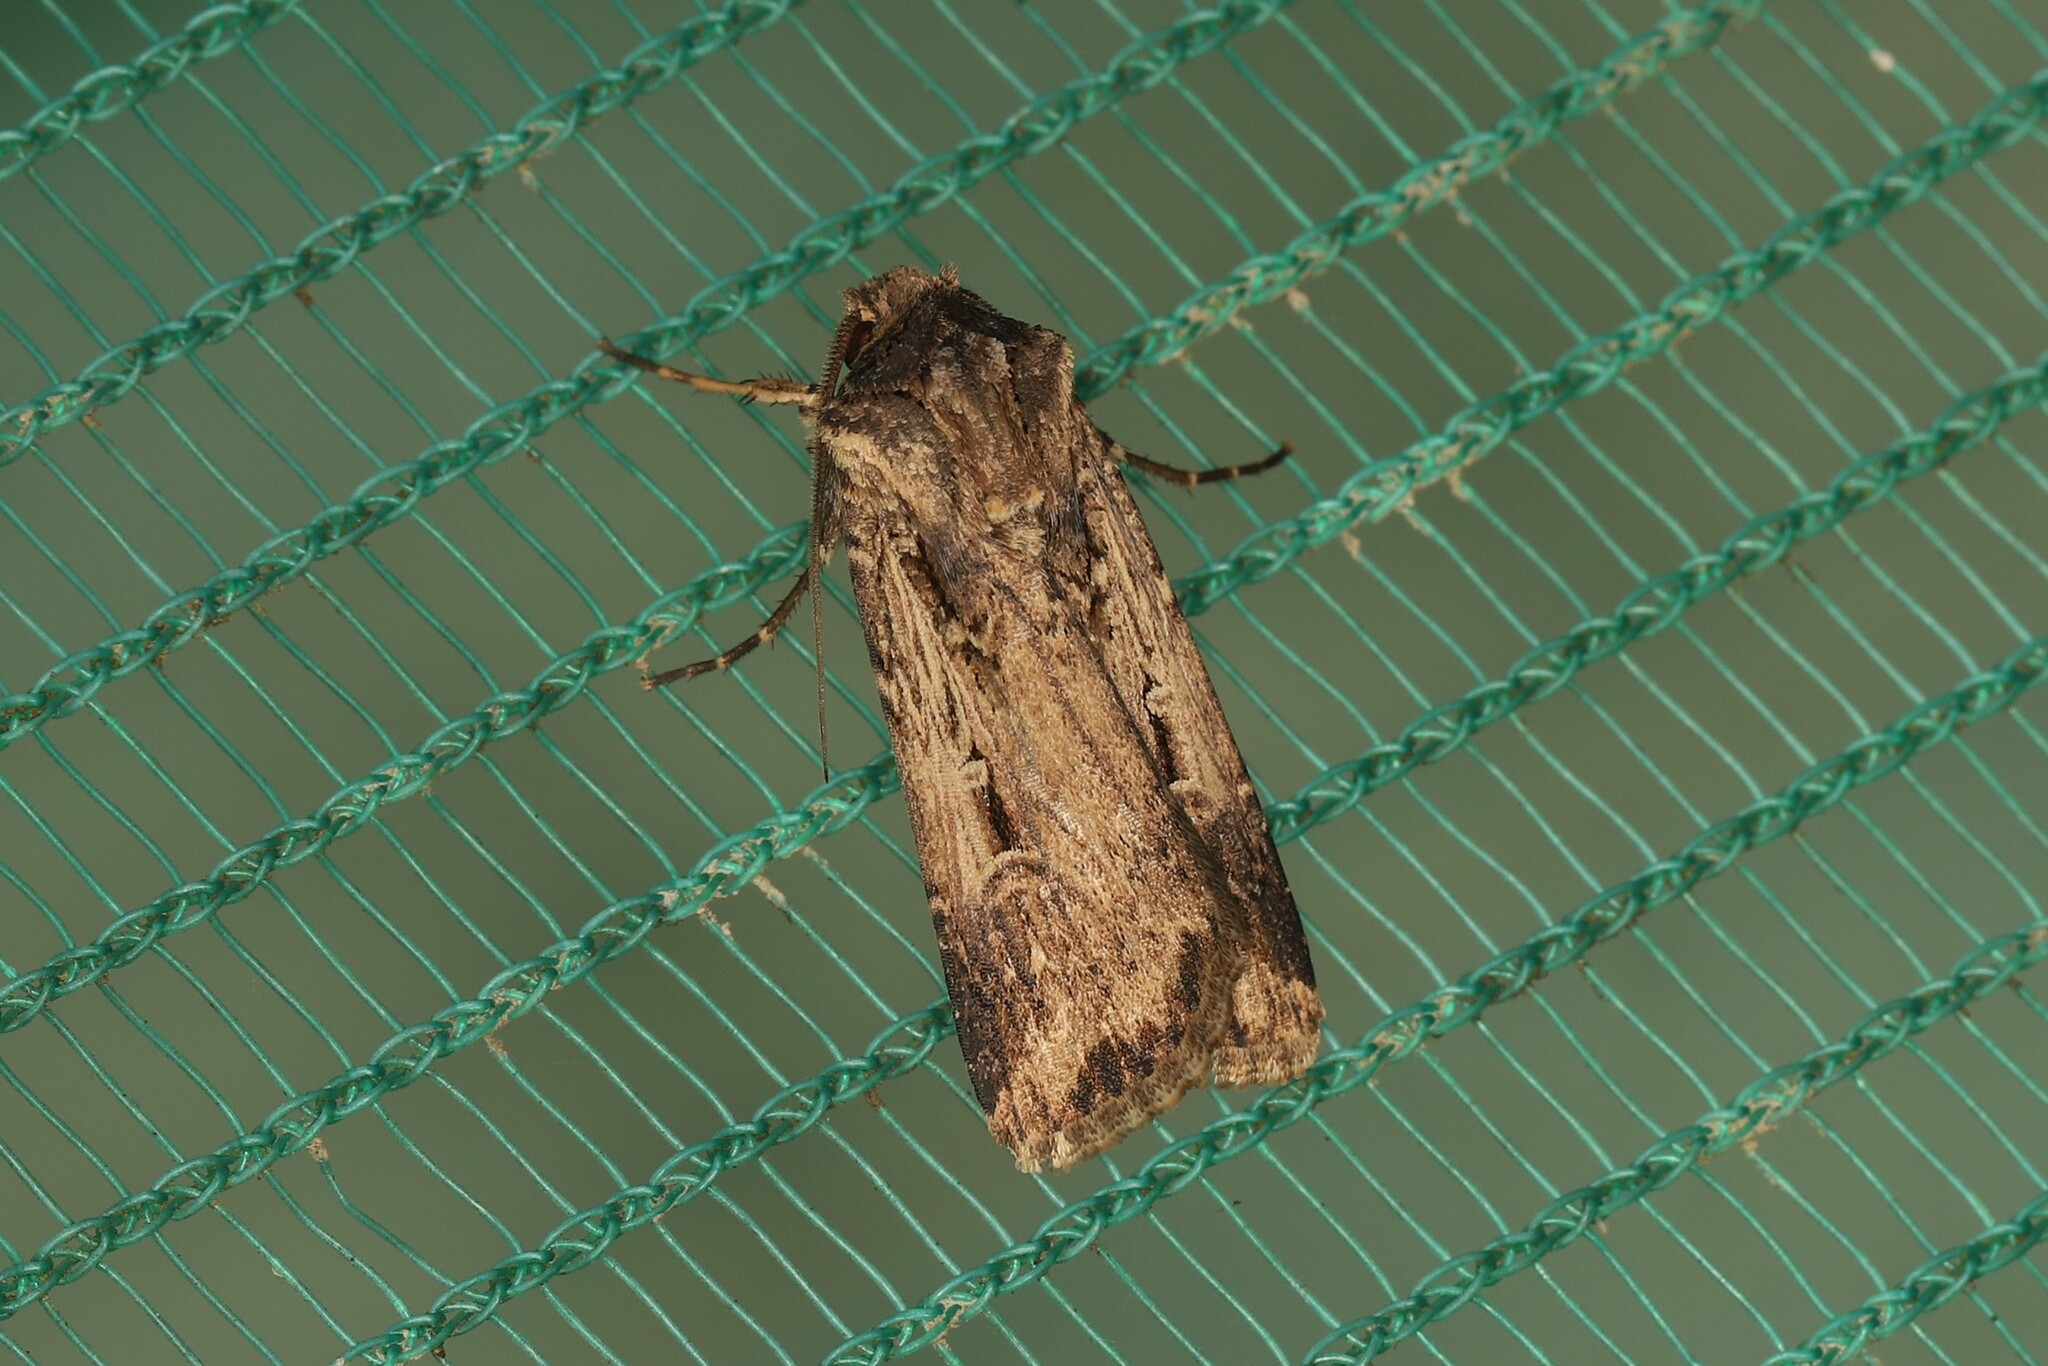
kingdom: Animalia
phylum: Arthropoda
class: Insecta
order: Lepidoptera
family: Noctuidae
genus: Feltia
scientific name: Feltia subterranea
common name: Granulate cutworm
